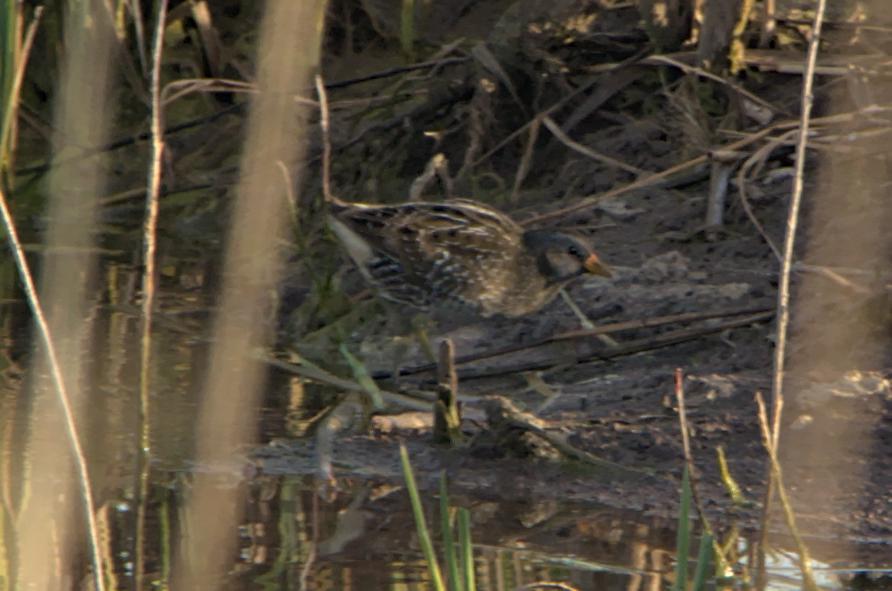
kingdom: Animalia
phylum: Chordata
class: Aves
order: Gruiformes
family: Rallidae
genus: Porzana
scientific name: Porzana porzana
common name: Spotted crake
